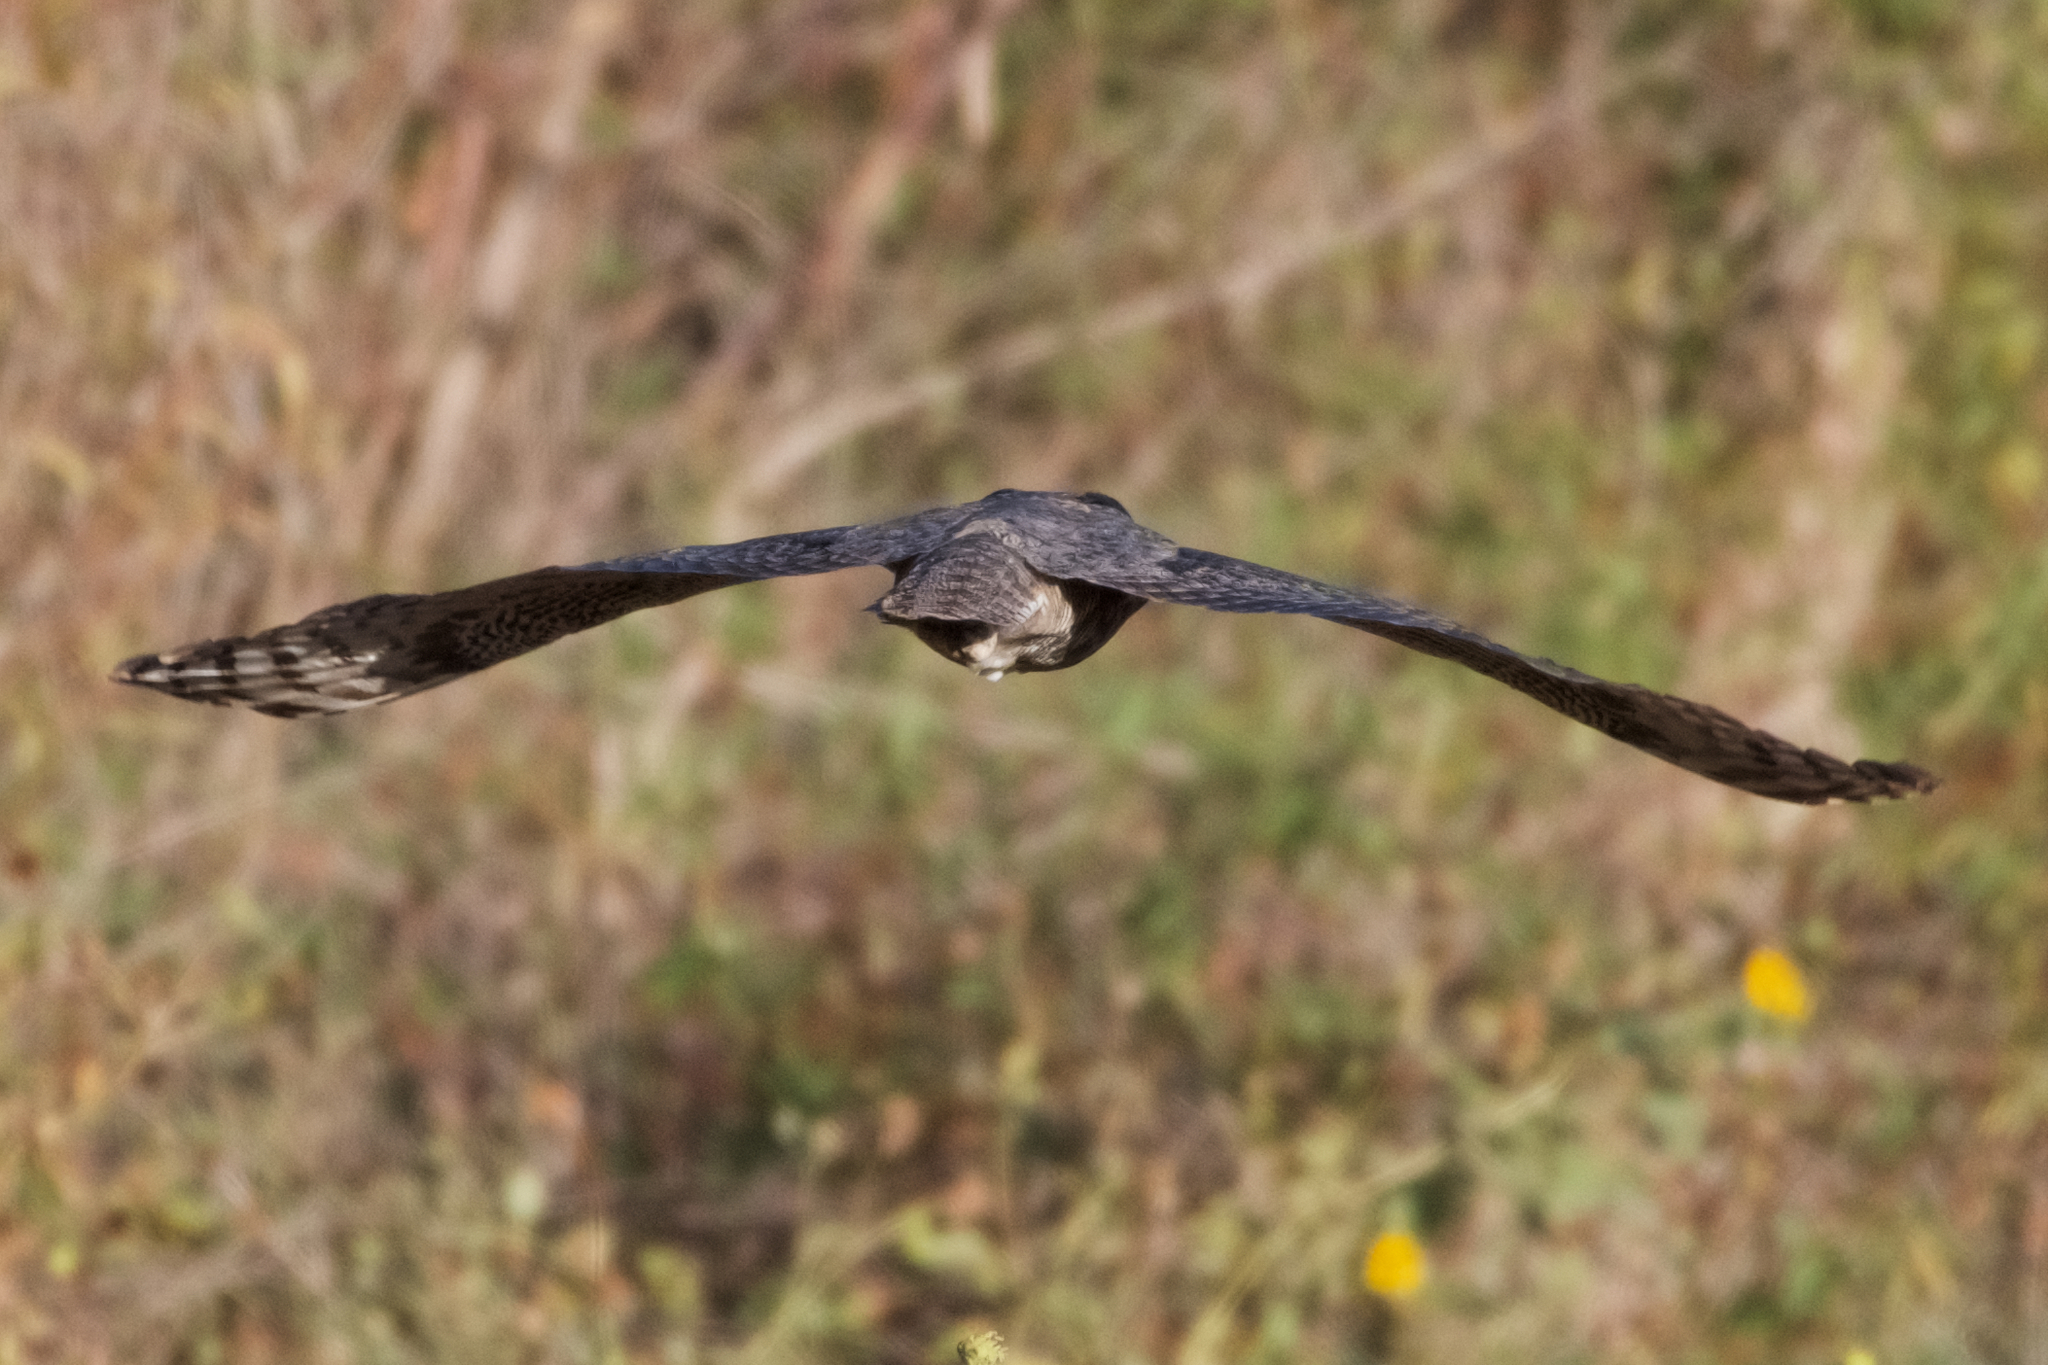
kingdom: Animalia
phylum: Chordata
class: Aves
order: Strigiformes
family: Strigidae
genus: Bubo
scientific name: Bubo virginianus
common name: Great horned owl
